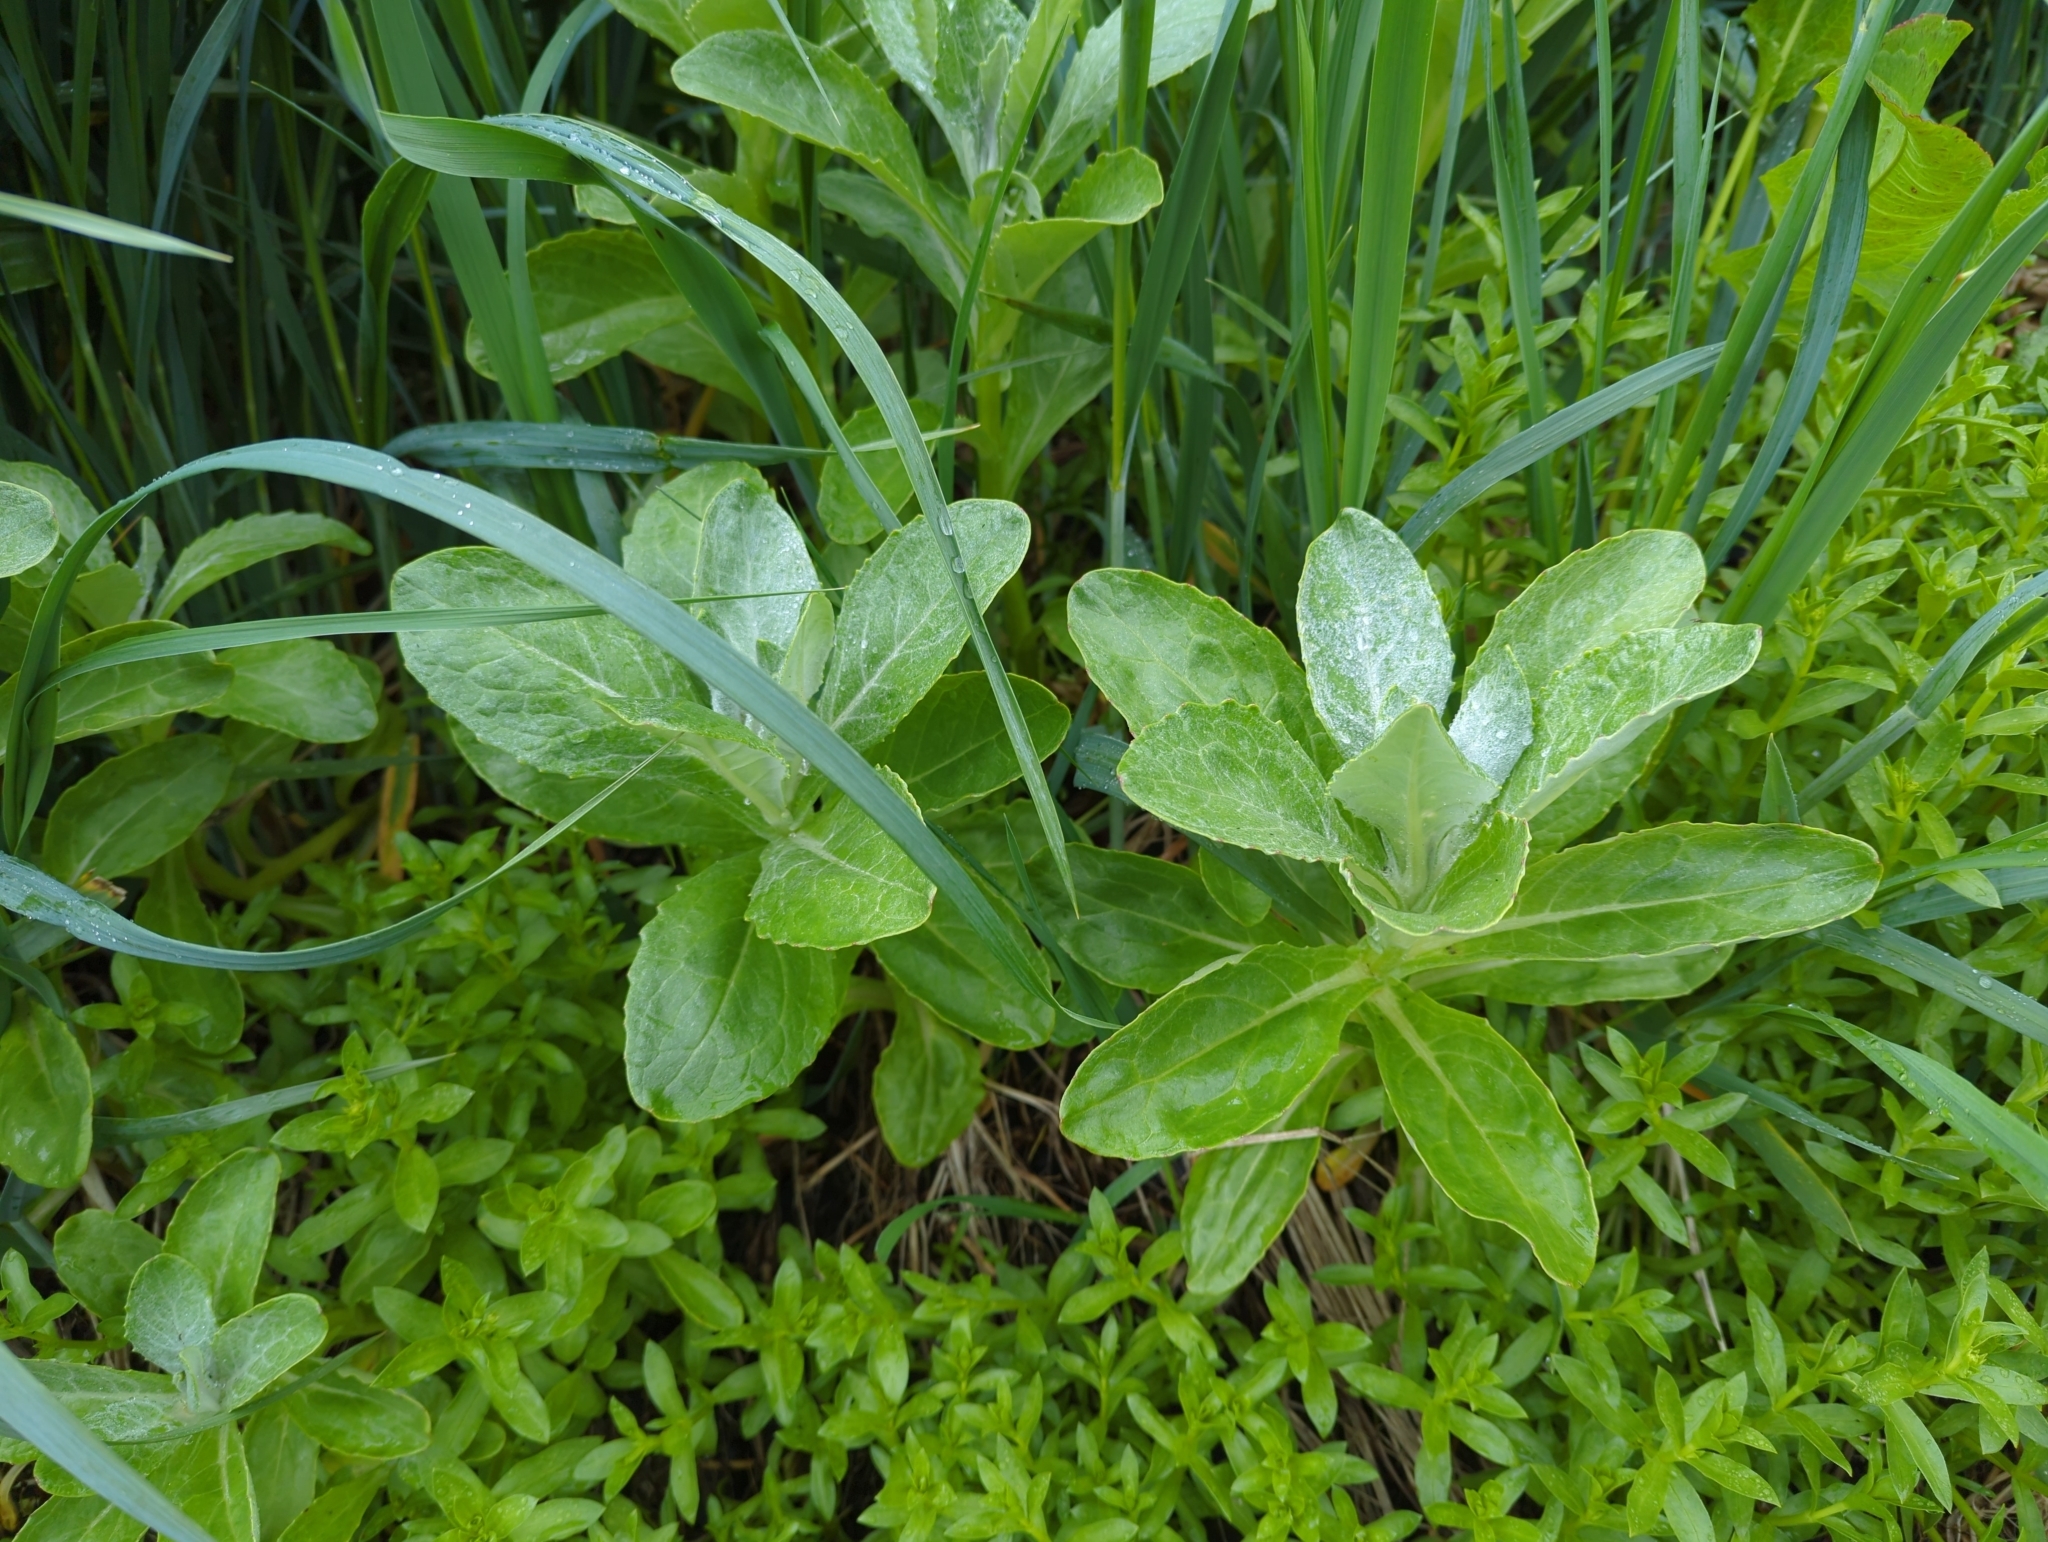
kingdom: Plantae
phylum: Tracheophyta
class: Magnoliopsida
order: Asterales
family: Asteraceae
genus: Jacobaea
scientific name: Jacobaea pseudoarnica
